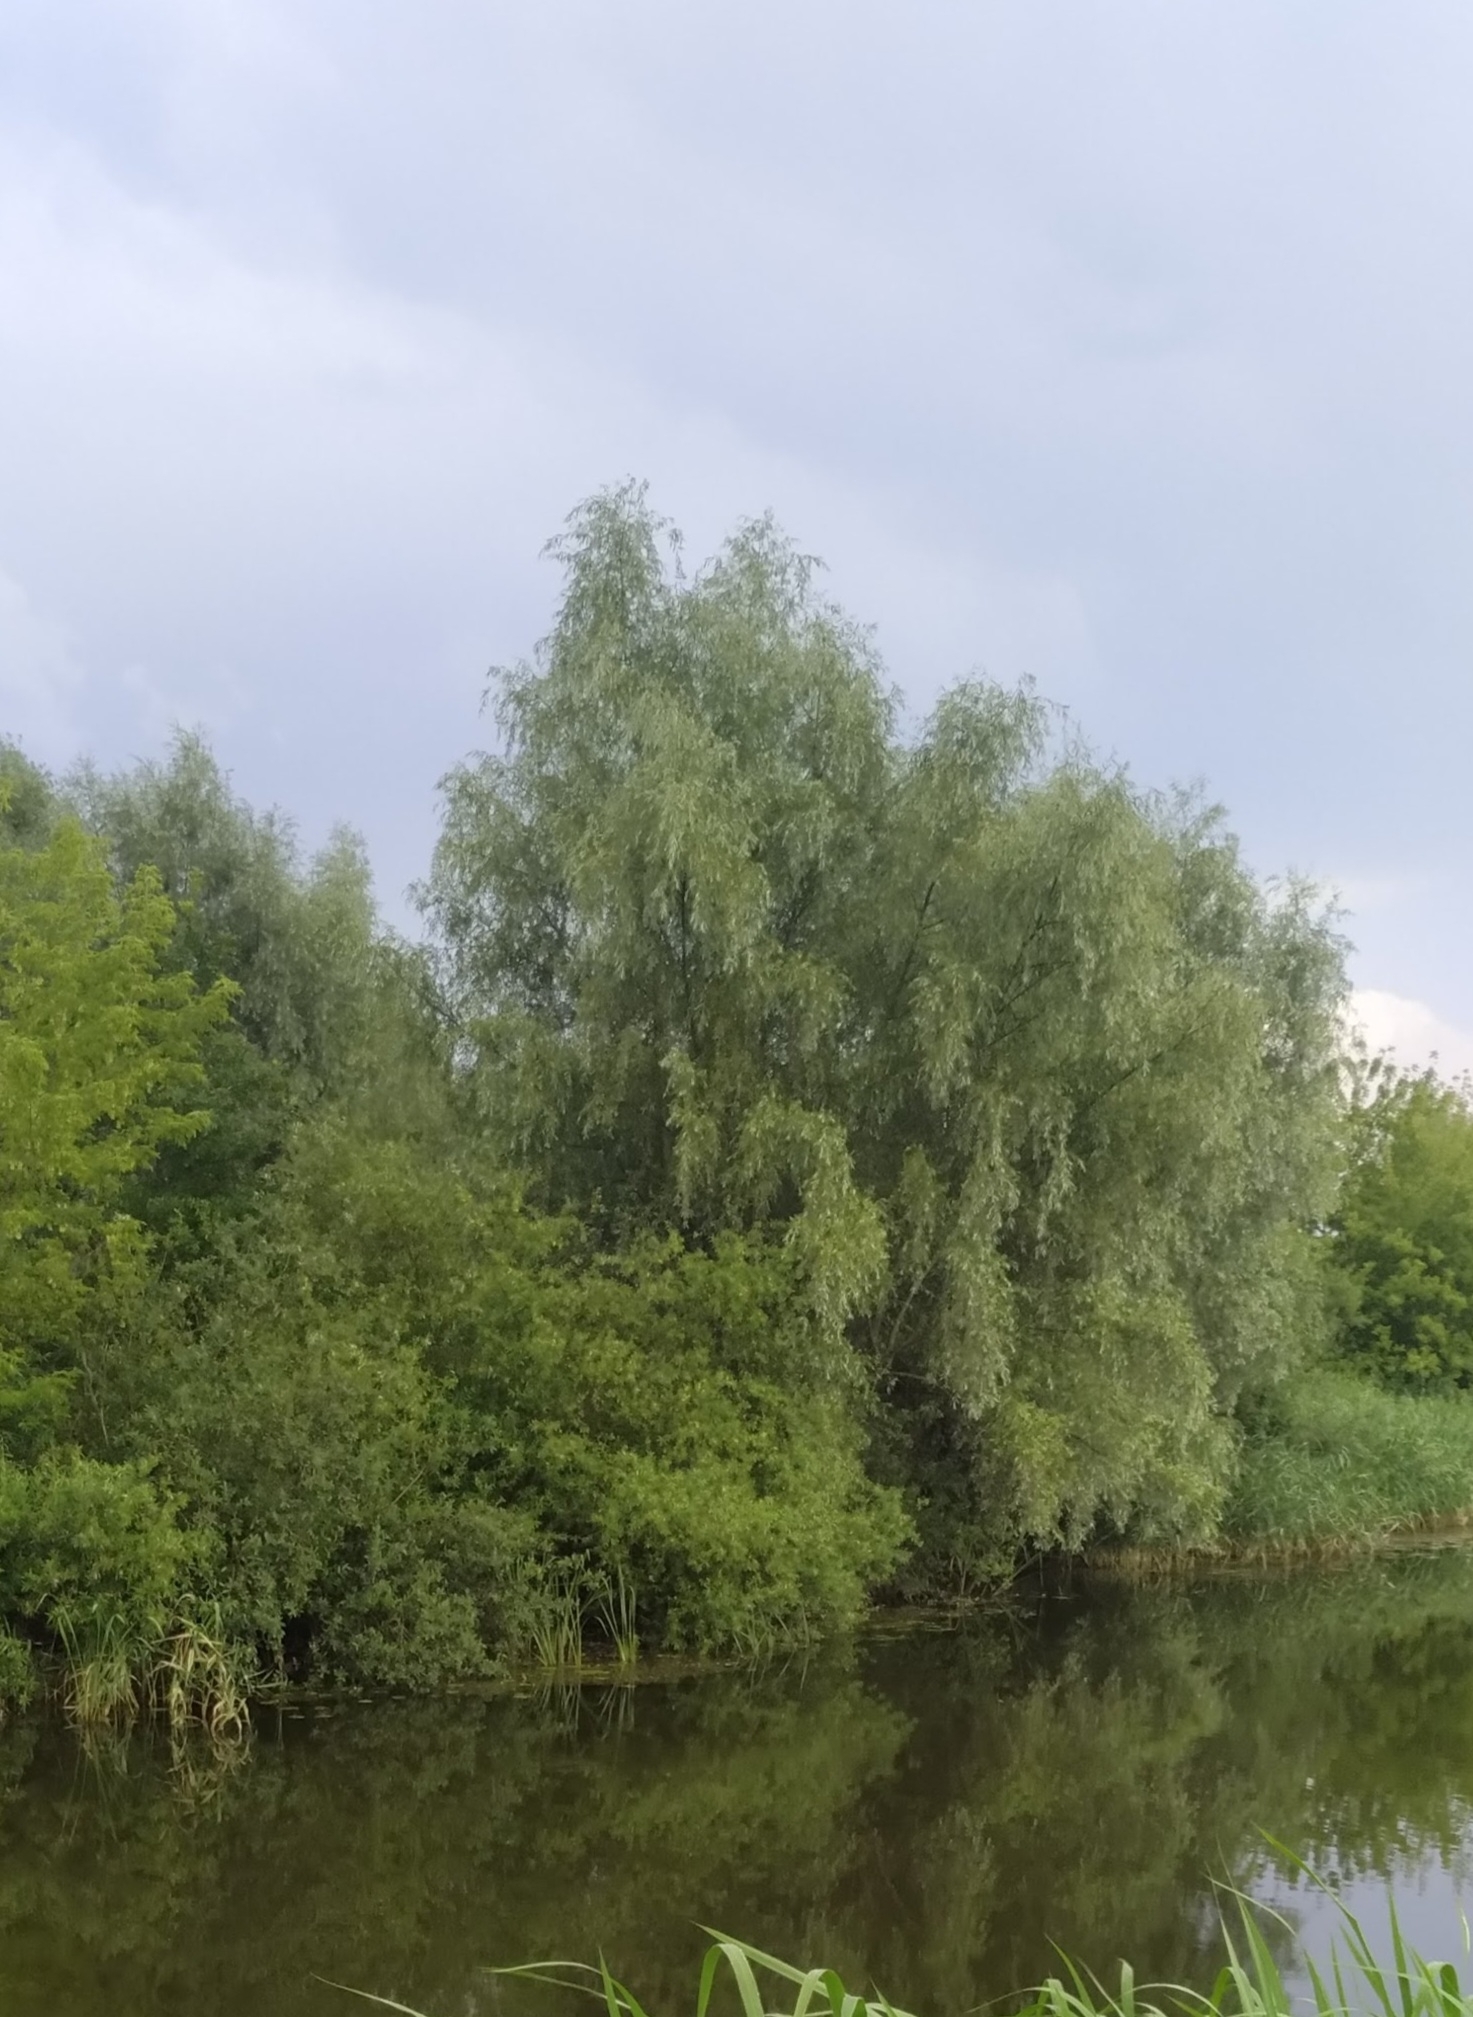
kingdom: Plantae
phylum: Tracheophyta
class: Magnoliopsida
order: Malpighiales
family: Salicaceae
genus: Salix
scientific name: Salix alba
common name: White willow
